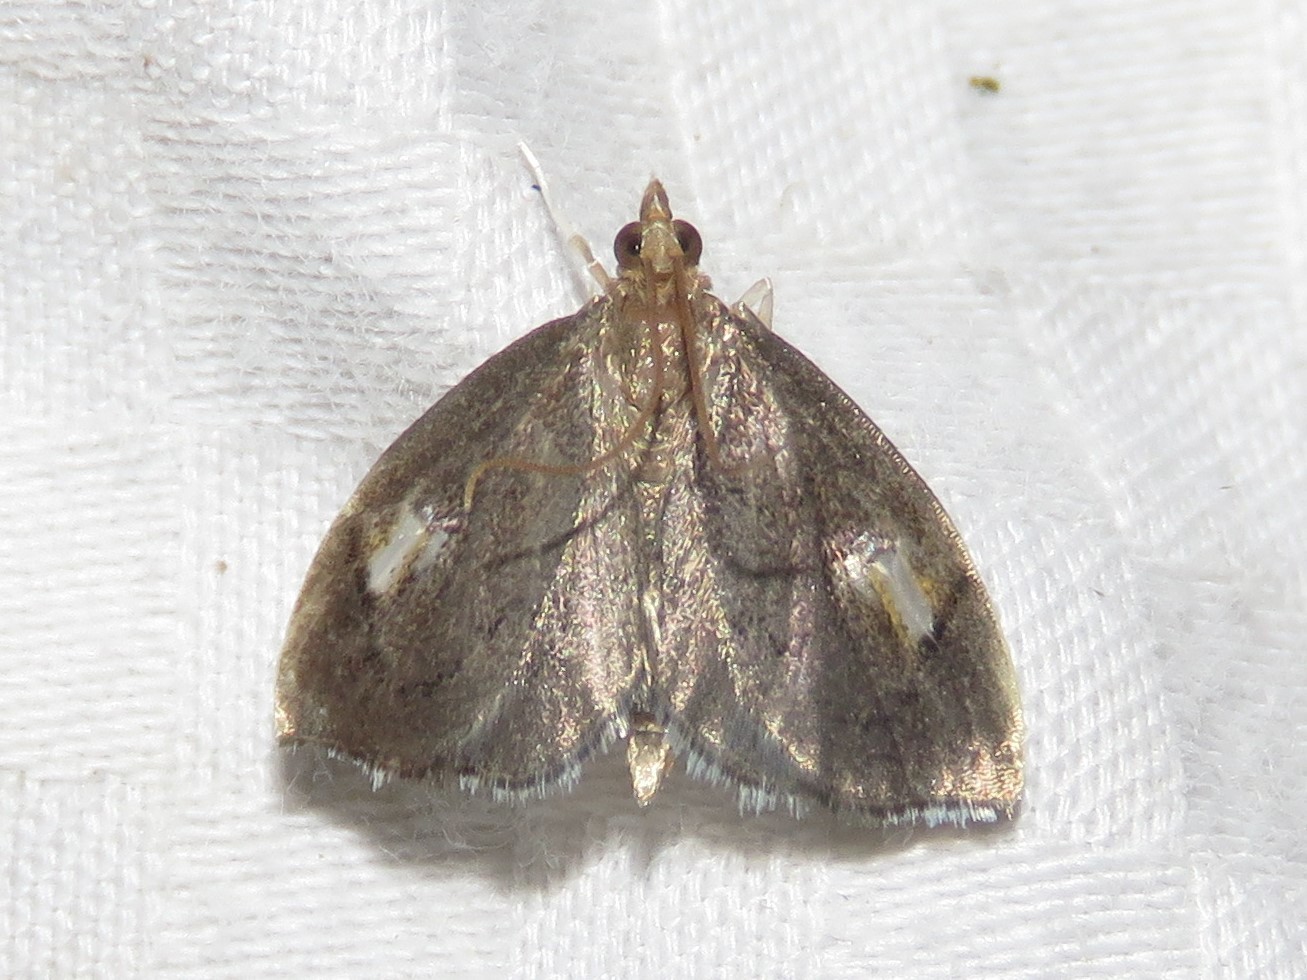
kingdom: Animalia
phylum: Arthropoda
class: Insecta
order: Lepidoptera
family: Crambidae
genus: Perispasta
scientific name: Perispasta caeculalis
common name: Titian peale's moth
